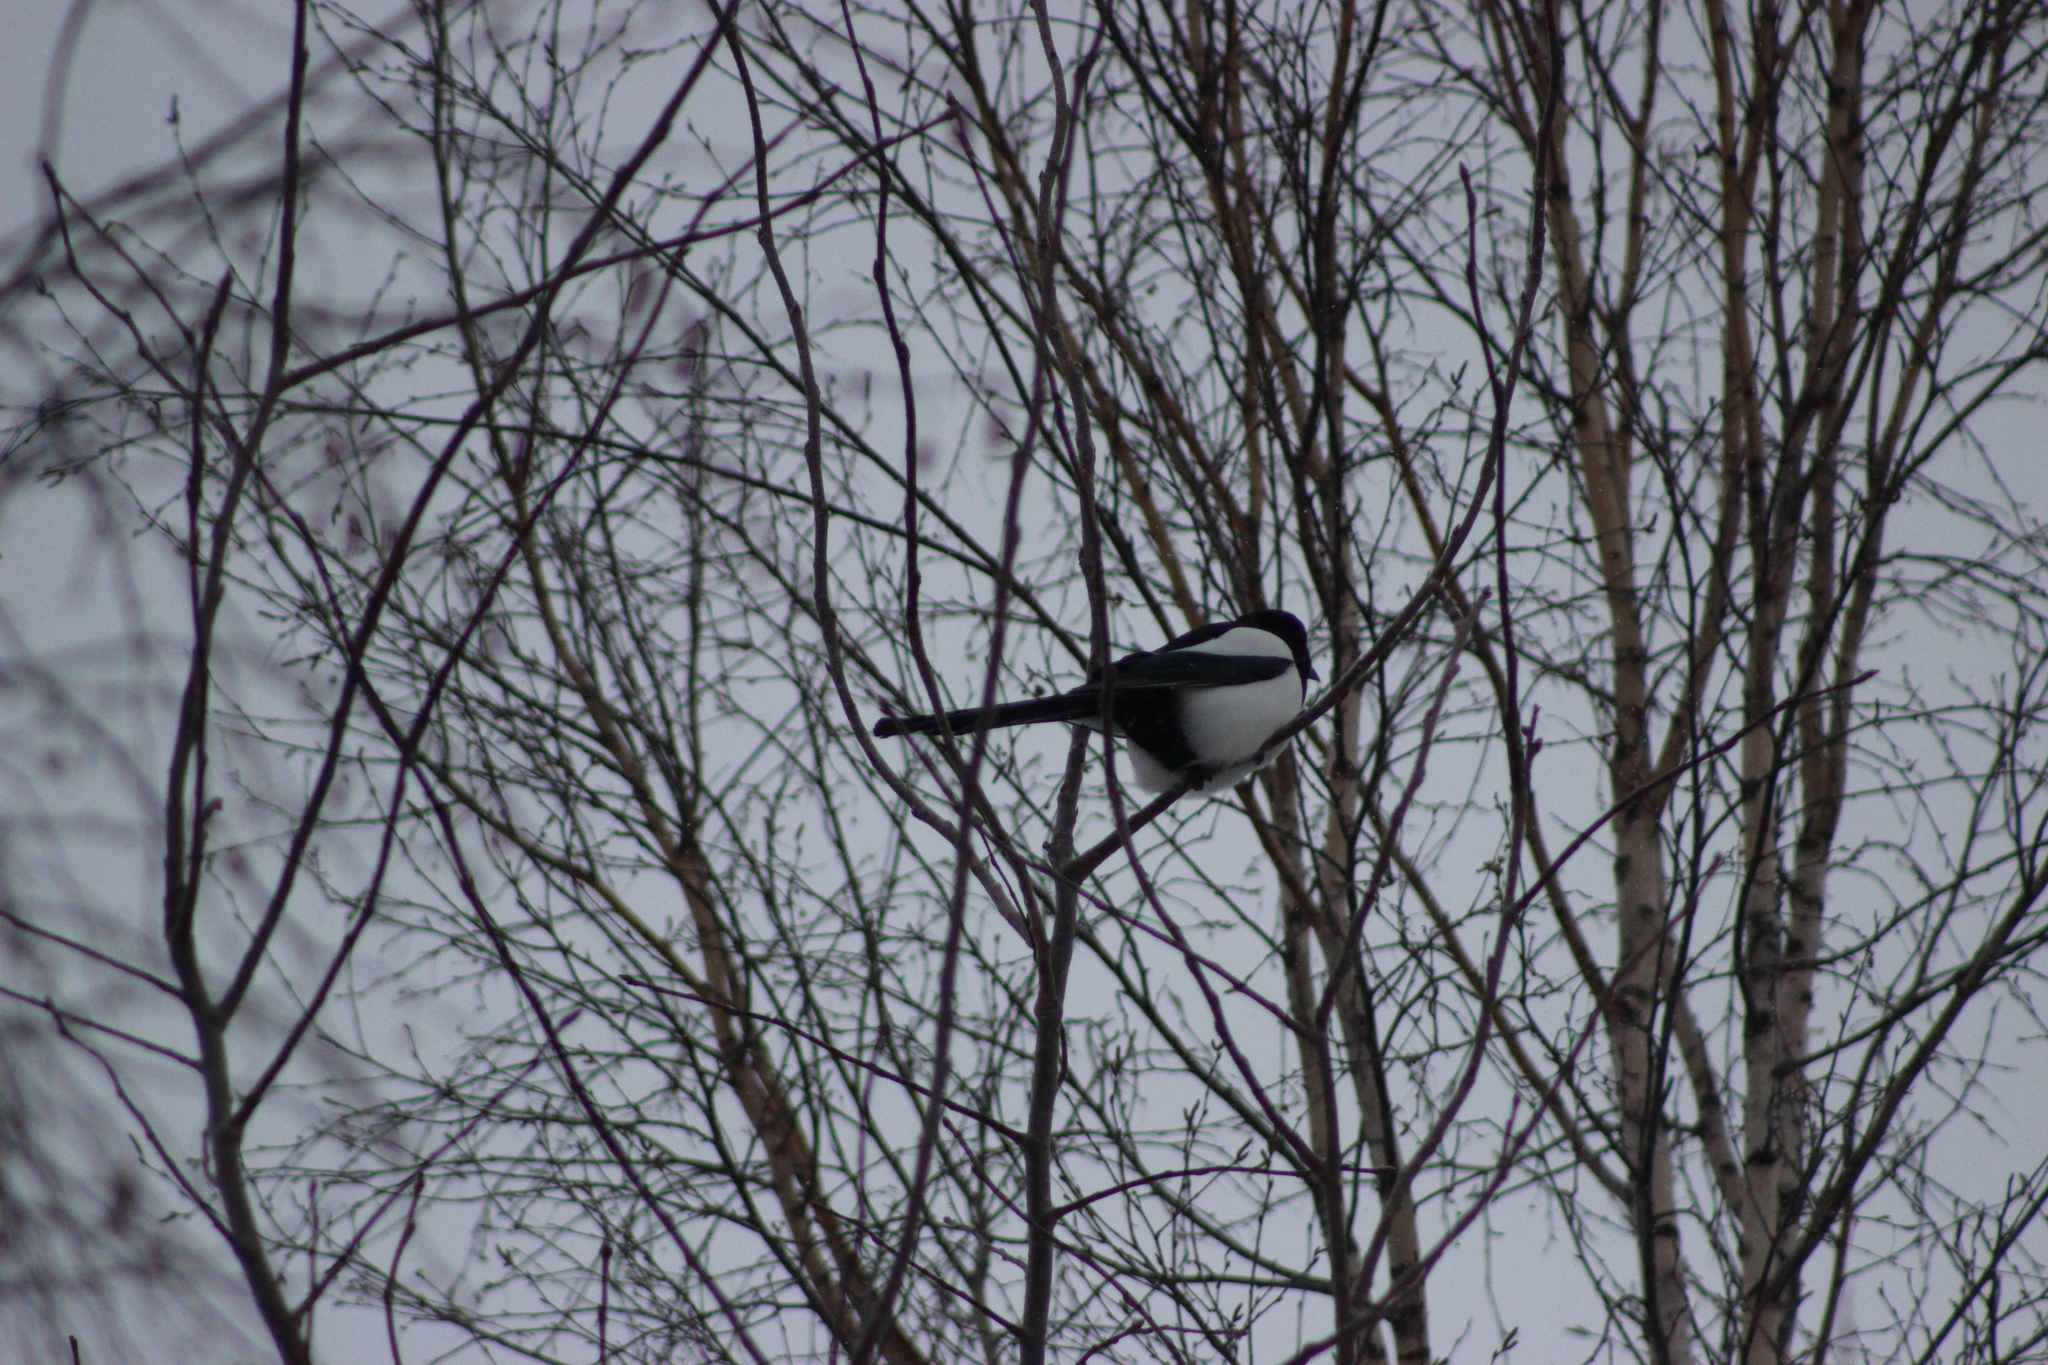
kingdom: Animalia
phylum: Chordata
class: Aves
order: Passeriformes
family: Corvidae
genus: Pica
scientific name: Pica pica
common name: Eurasian magpie
